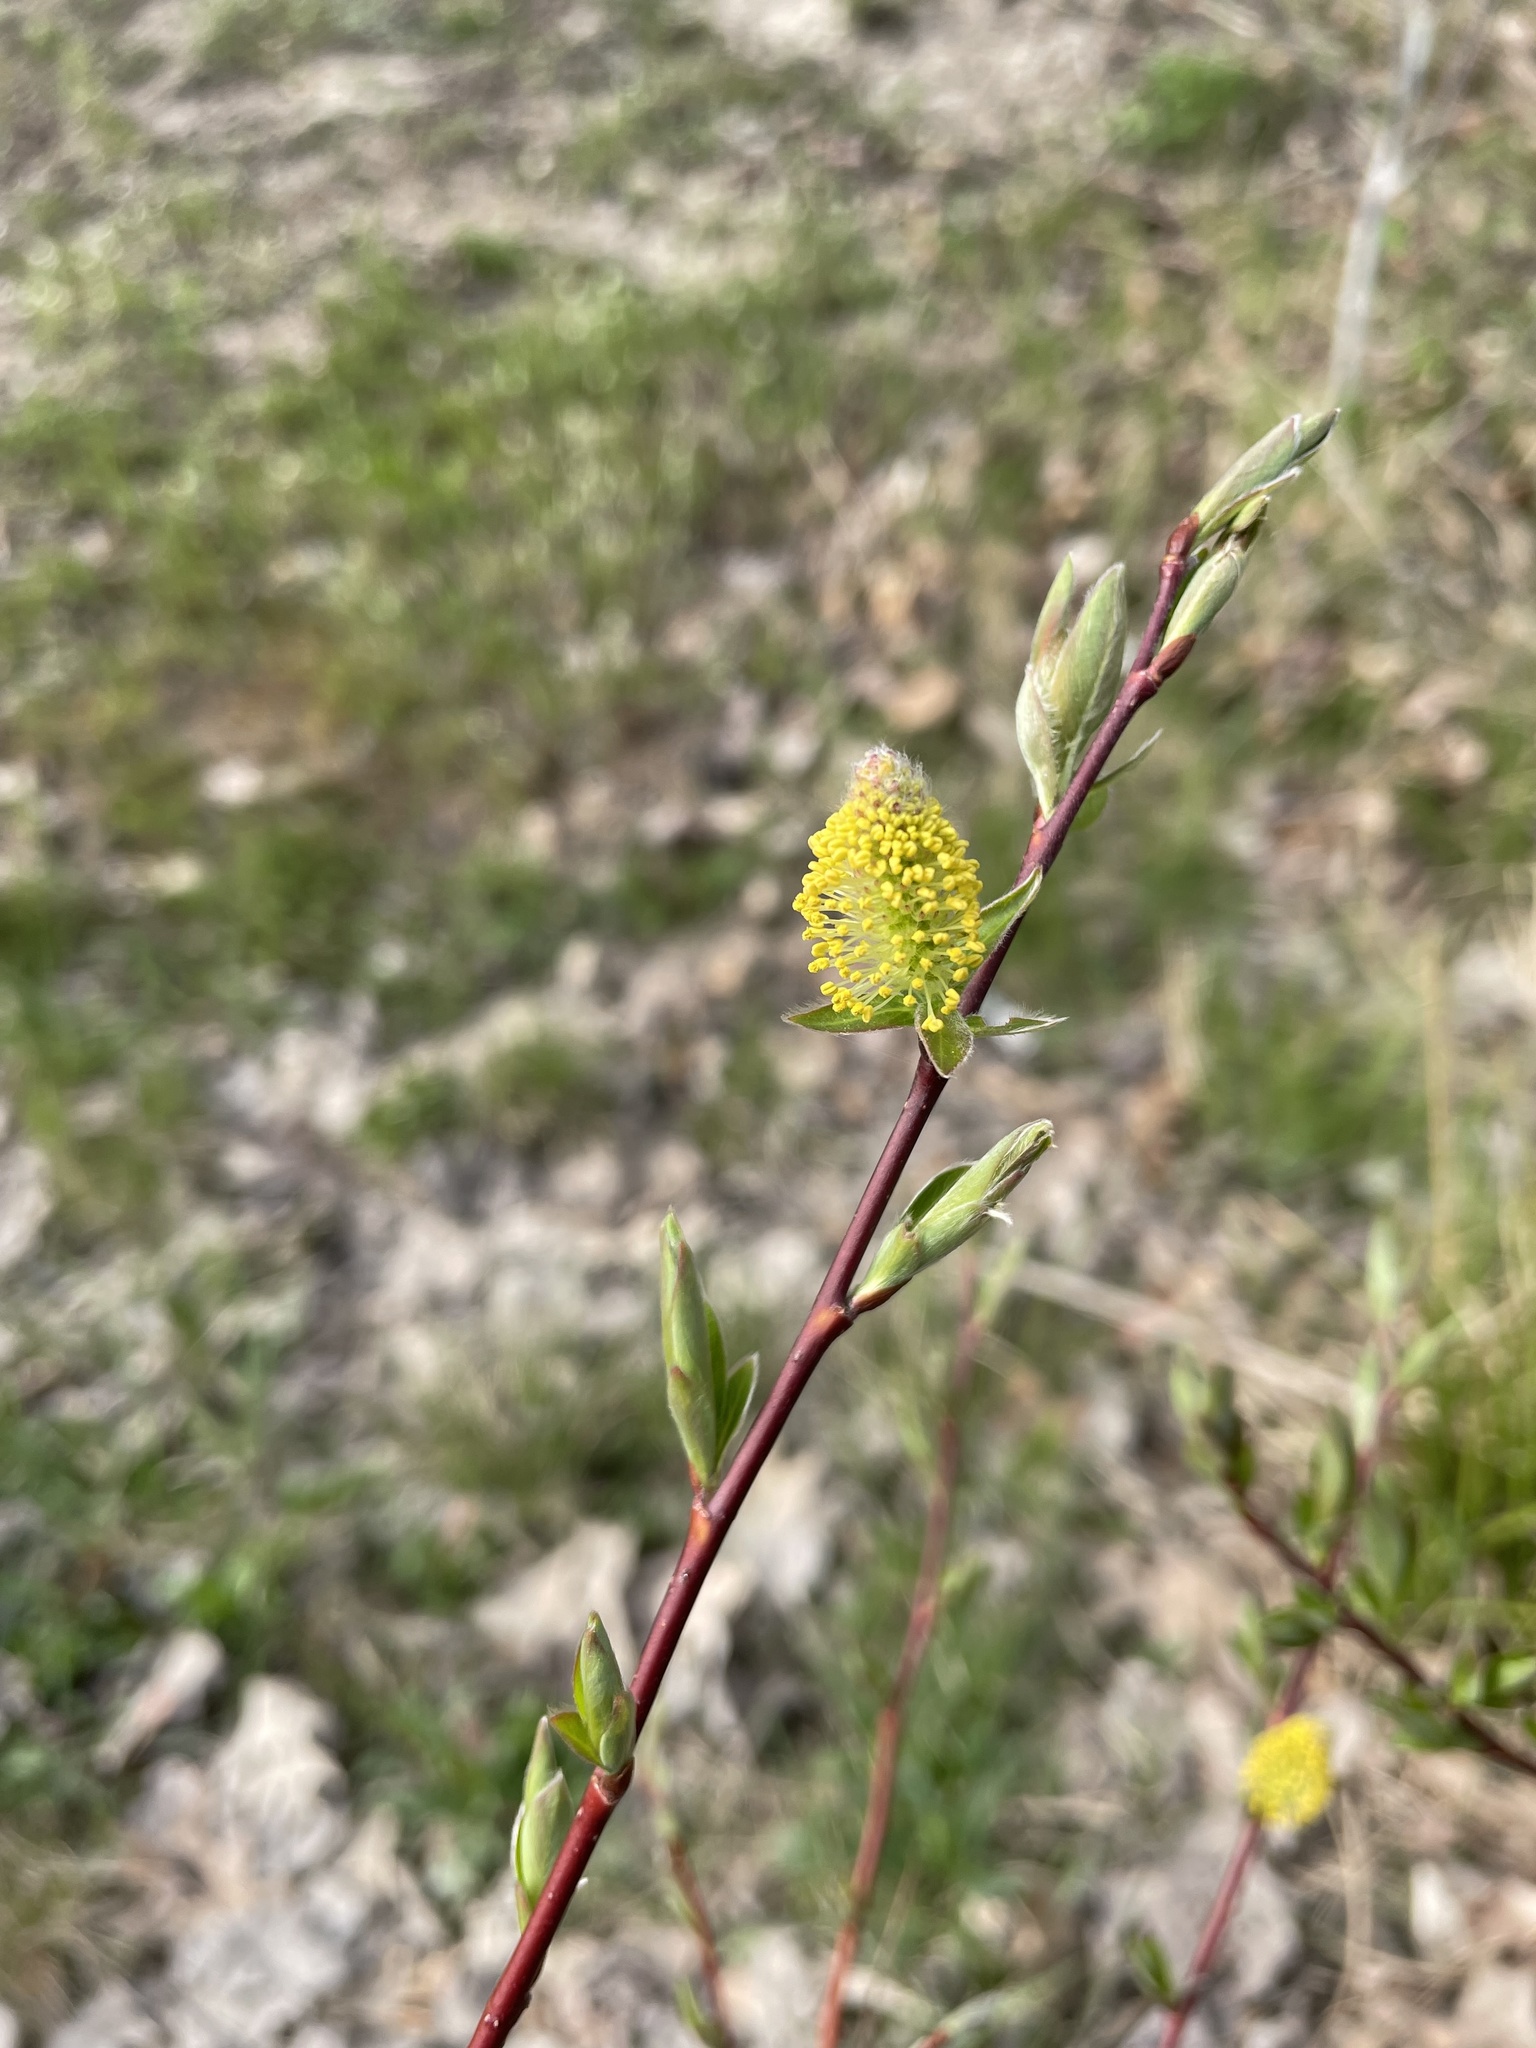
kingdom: Plantae
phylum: Tracheophyta
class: Magnoliopsida
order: Malpighiales
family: Salicaceae
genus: Salix
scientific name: Salix discolor
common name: Glaucous willow
